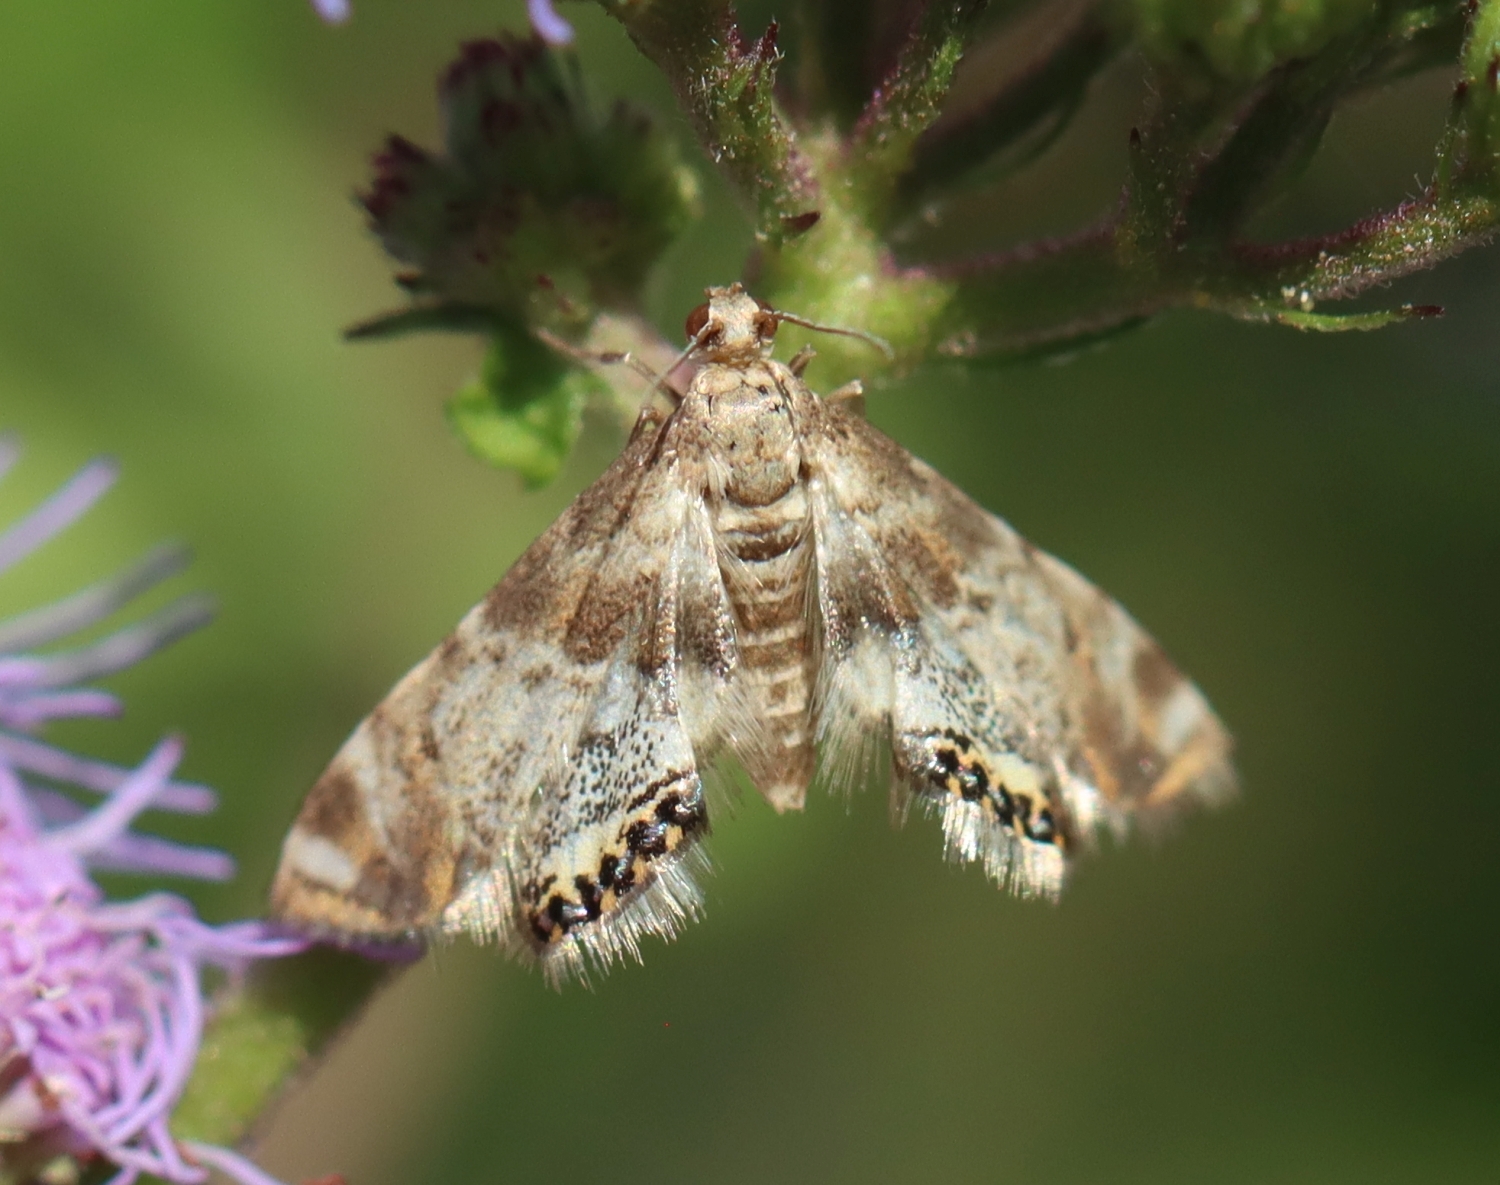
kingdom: Animalia
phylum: Arthropoda
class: Insecta
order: Lepidoptera
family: Crambidae
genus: Petrophila
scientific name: Petrophila fulicalis
